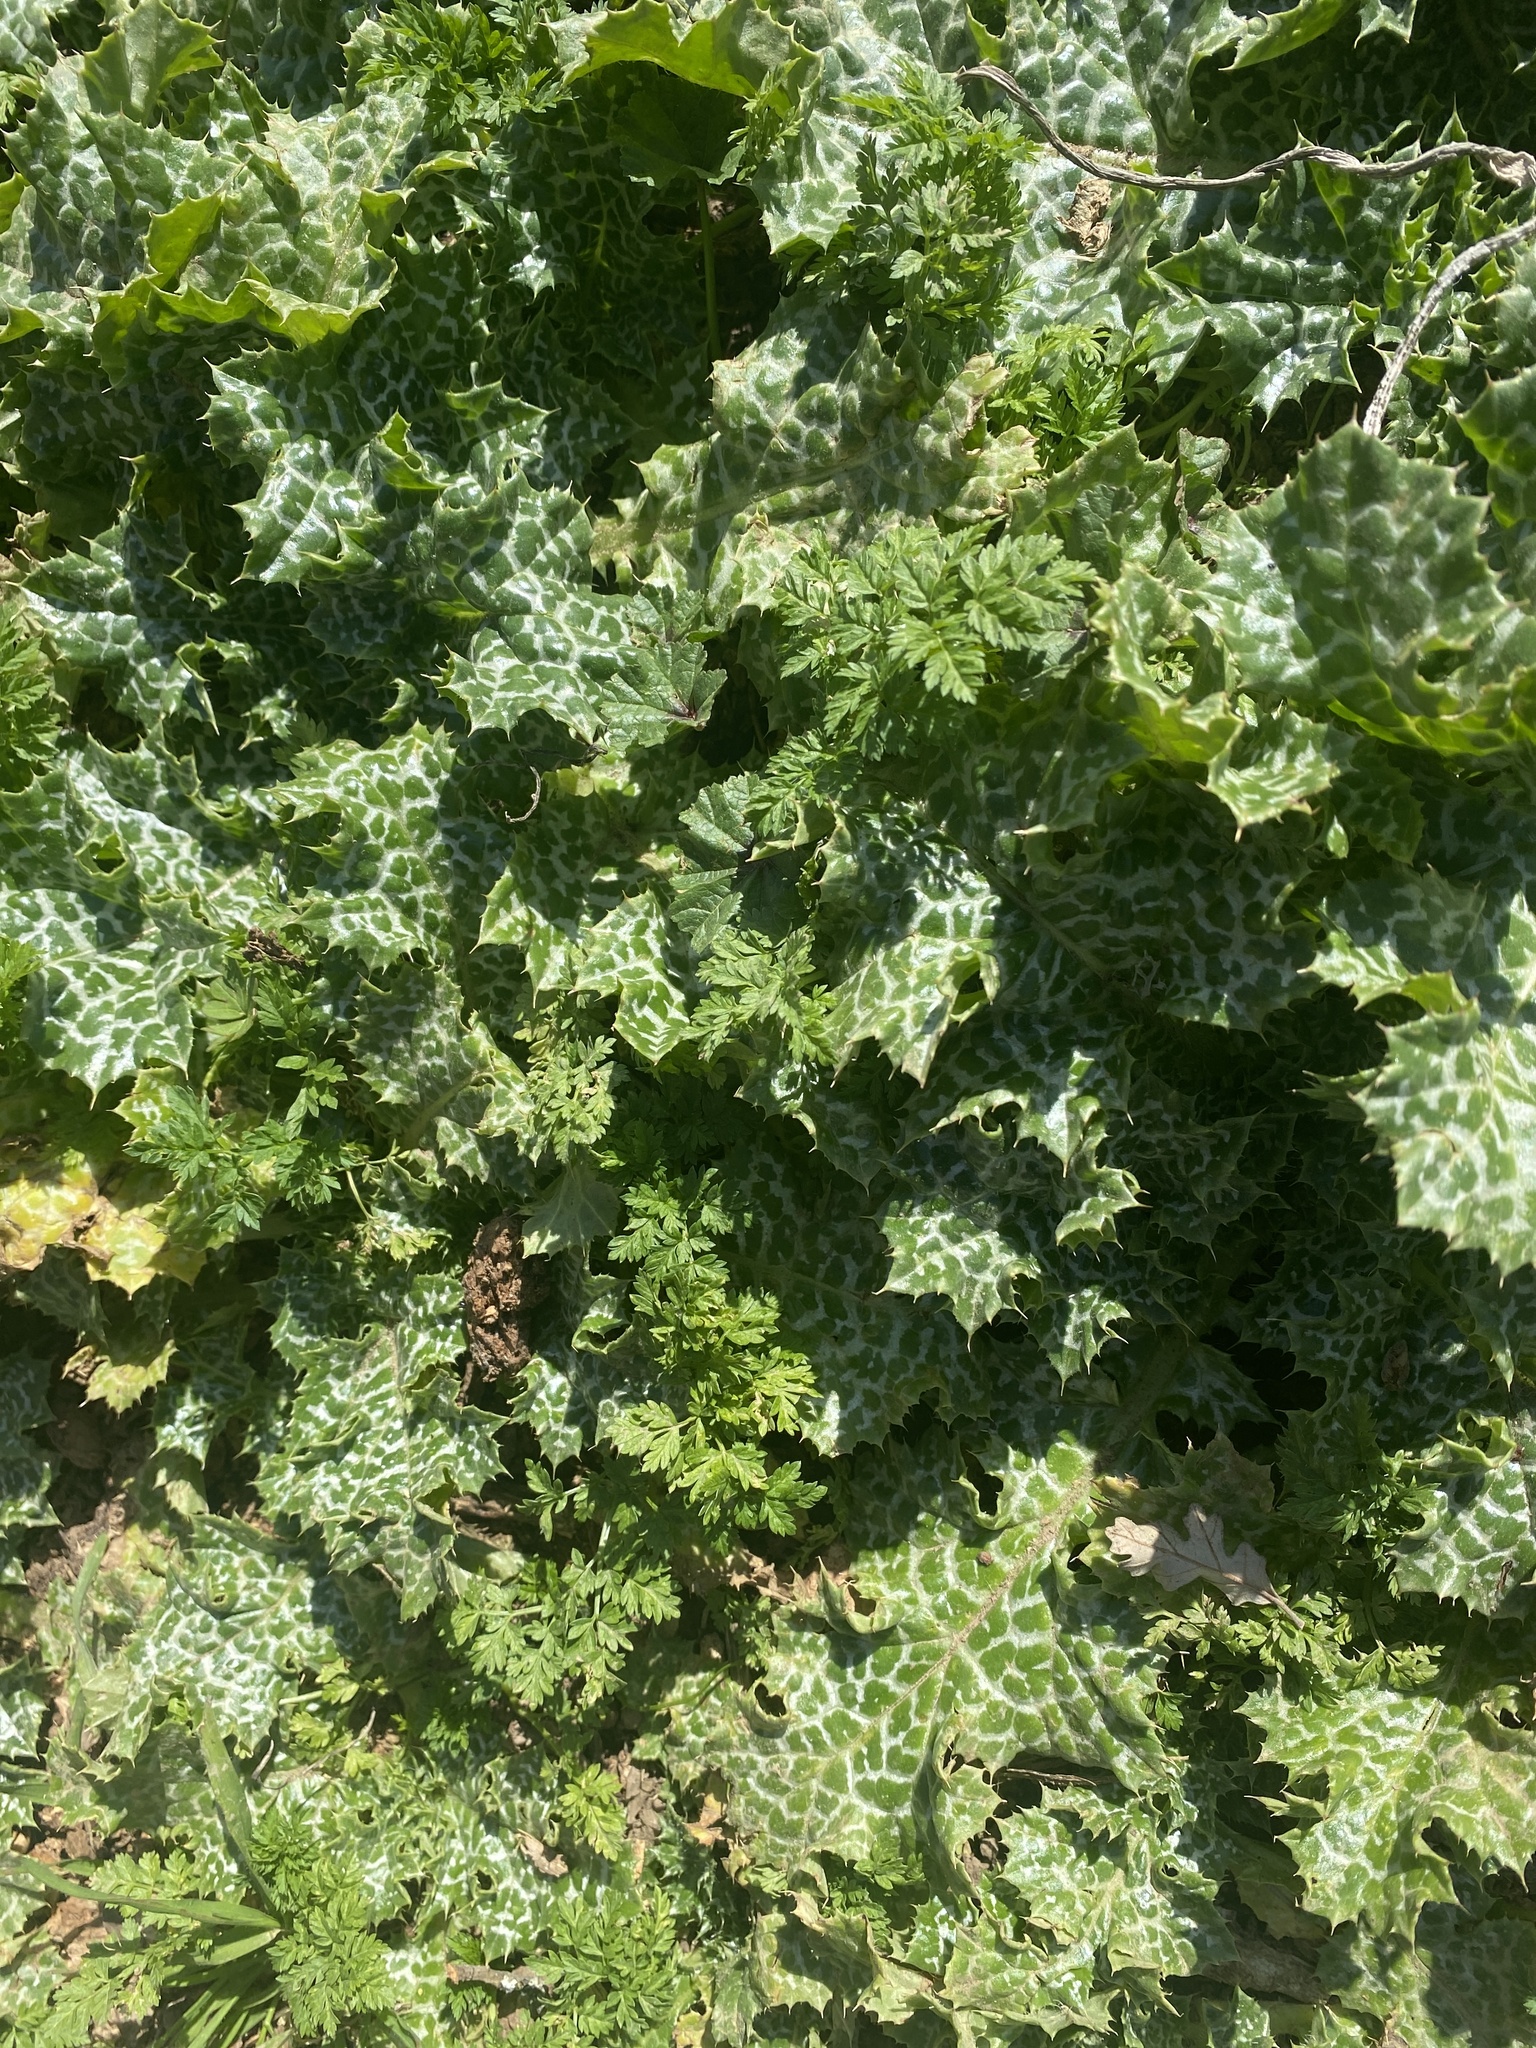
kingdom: Plantae
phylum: Tracheophyta
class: Magnoliopsida
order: Asterales
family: Asteraceae
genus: Silybum
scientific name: Silybum marianum
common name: Milk thistle
